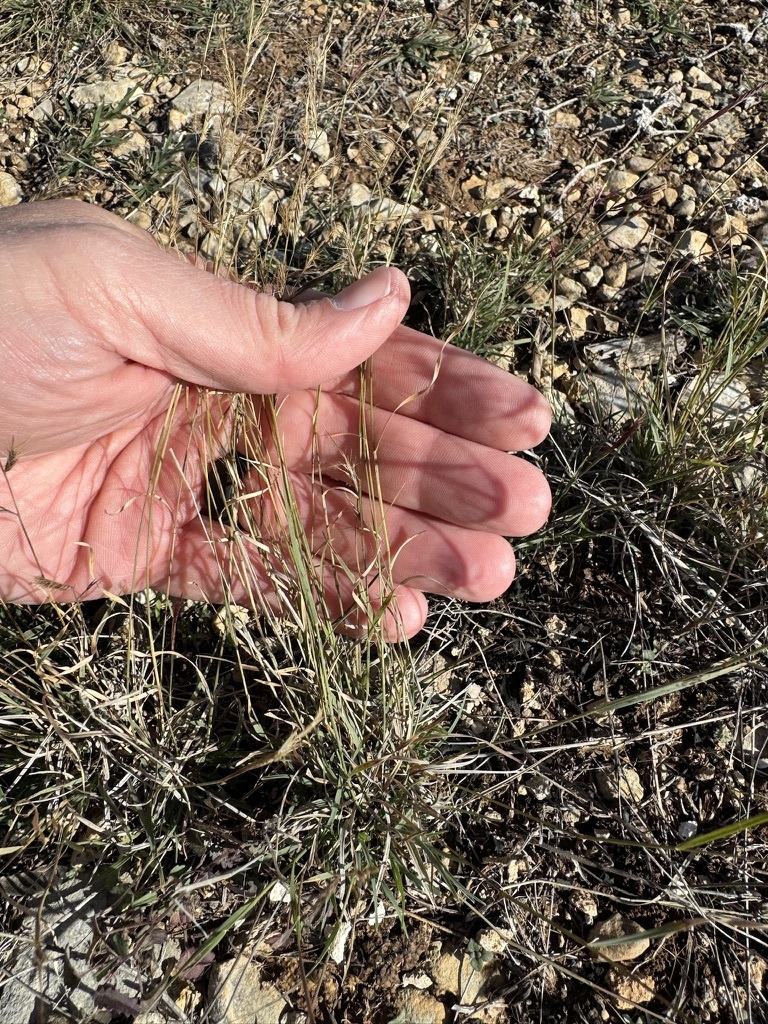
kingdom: Plantae
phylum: Tracheophyta
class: Liliopsida
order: Poales
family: Poaceae
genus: Bouteloua
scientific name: Bouteloua trifida
